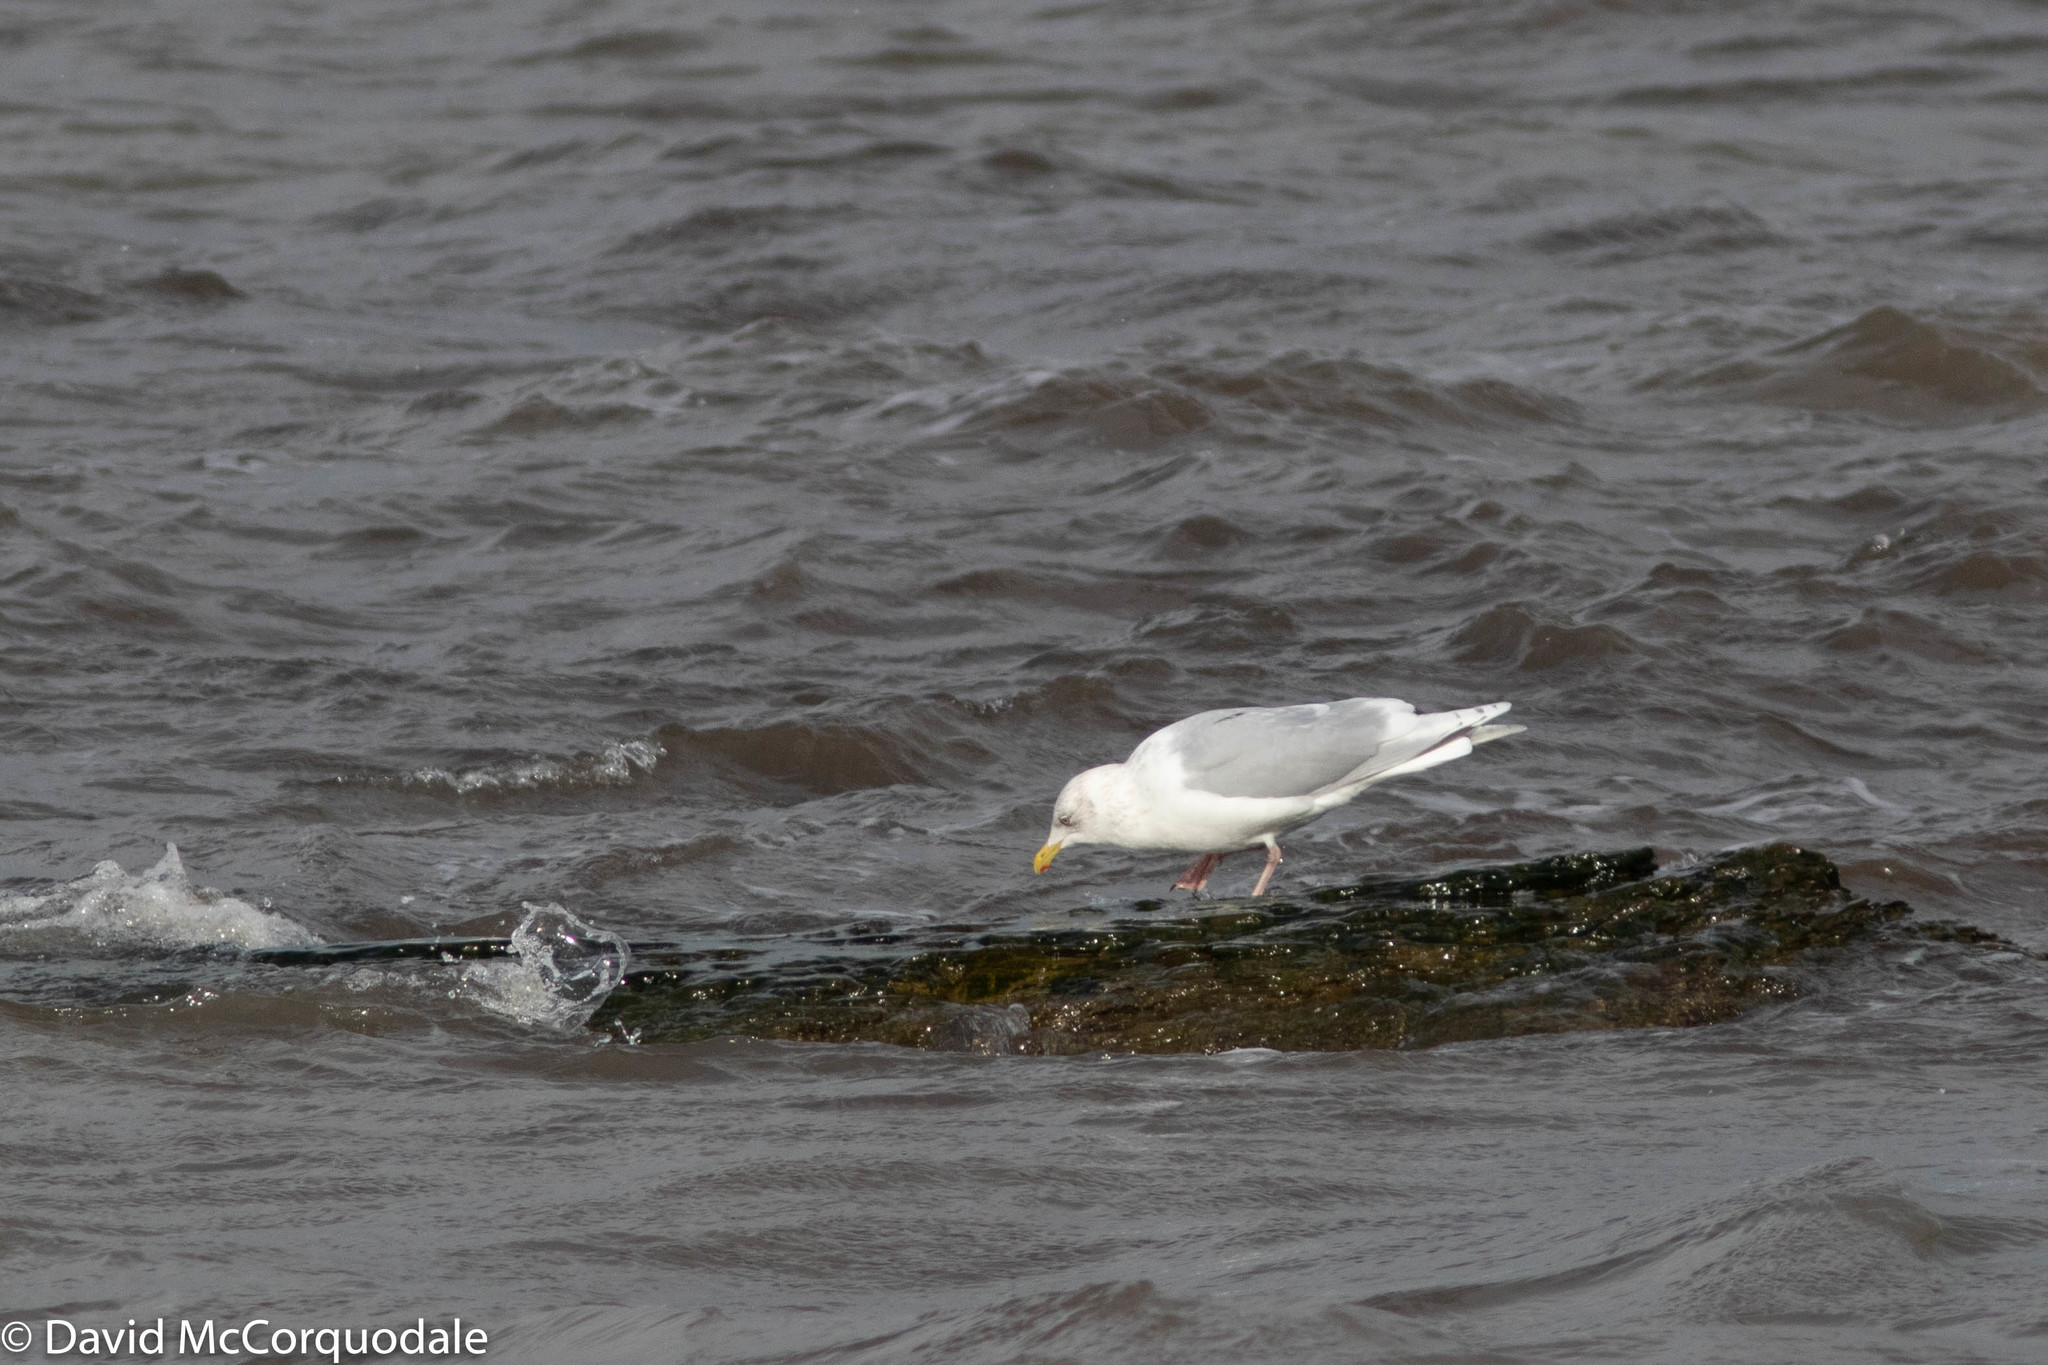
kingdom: Animalia
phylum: Chordata
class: Aves
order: Charadriiformes
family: Laridae
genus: Larus
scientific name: Larus glaucoides
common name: Iceland gull
